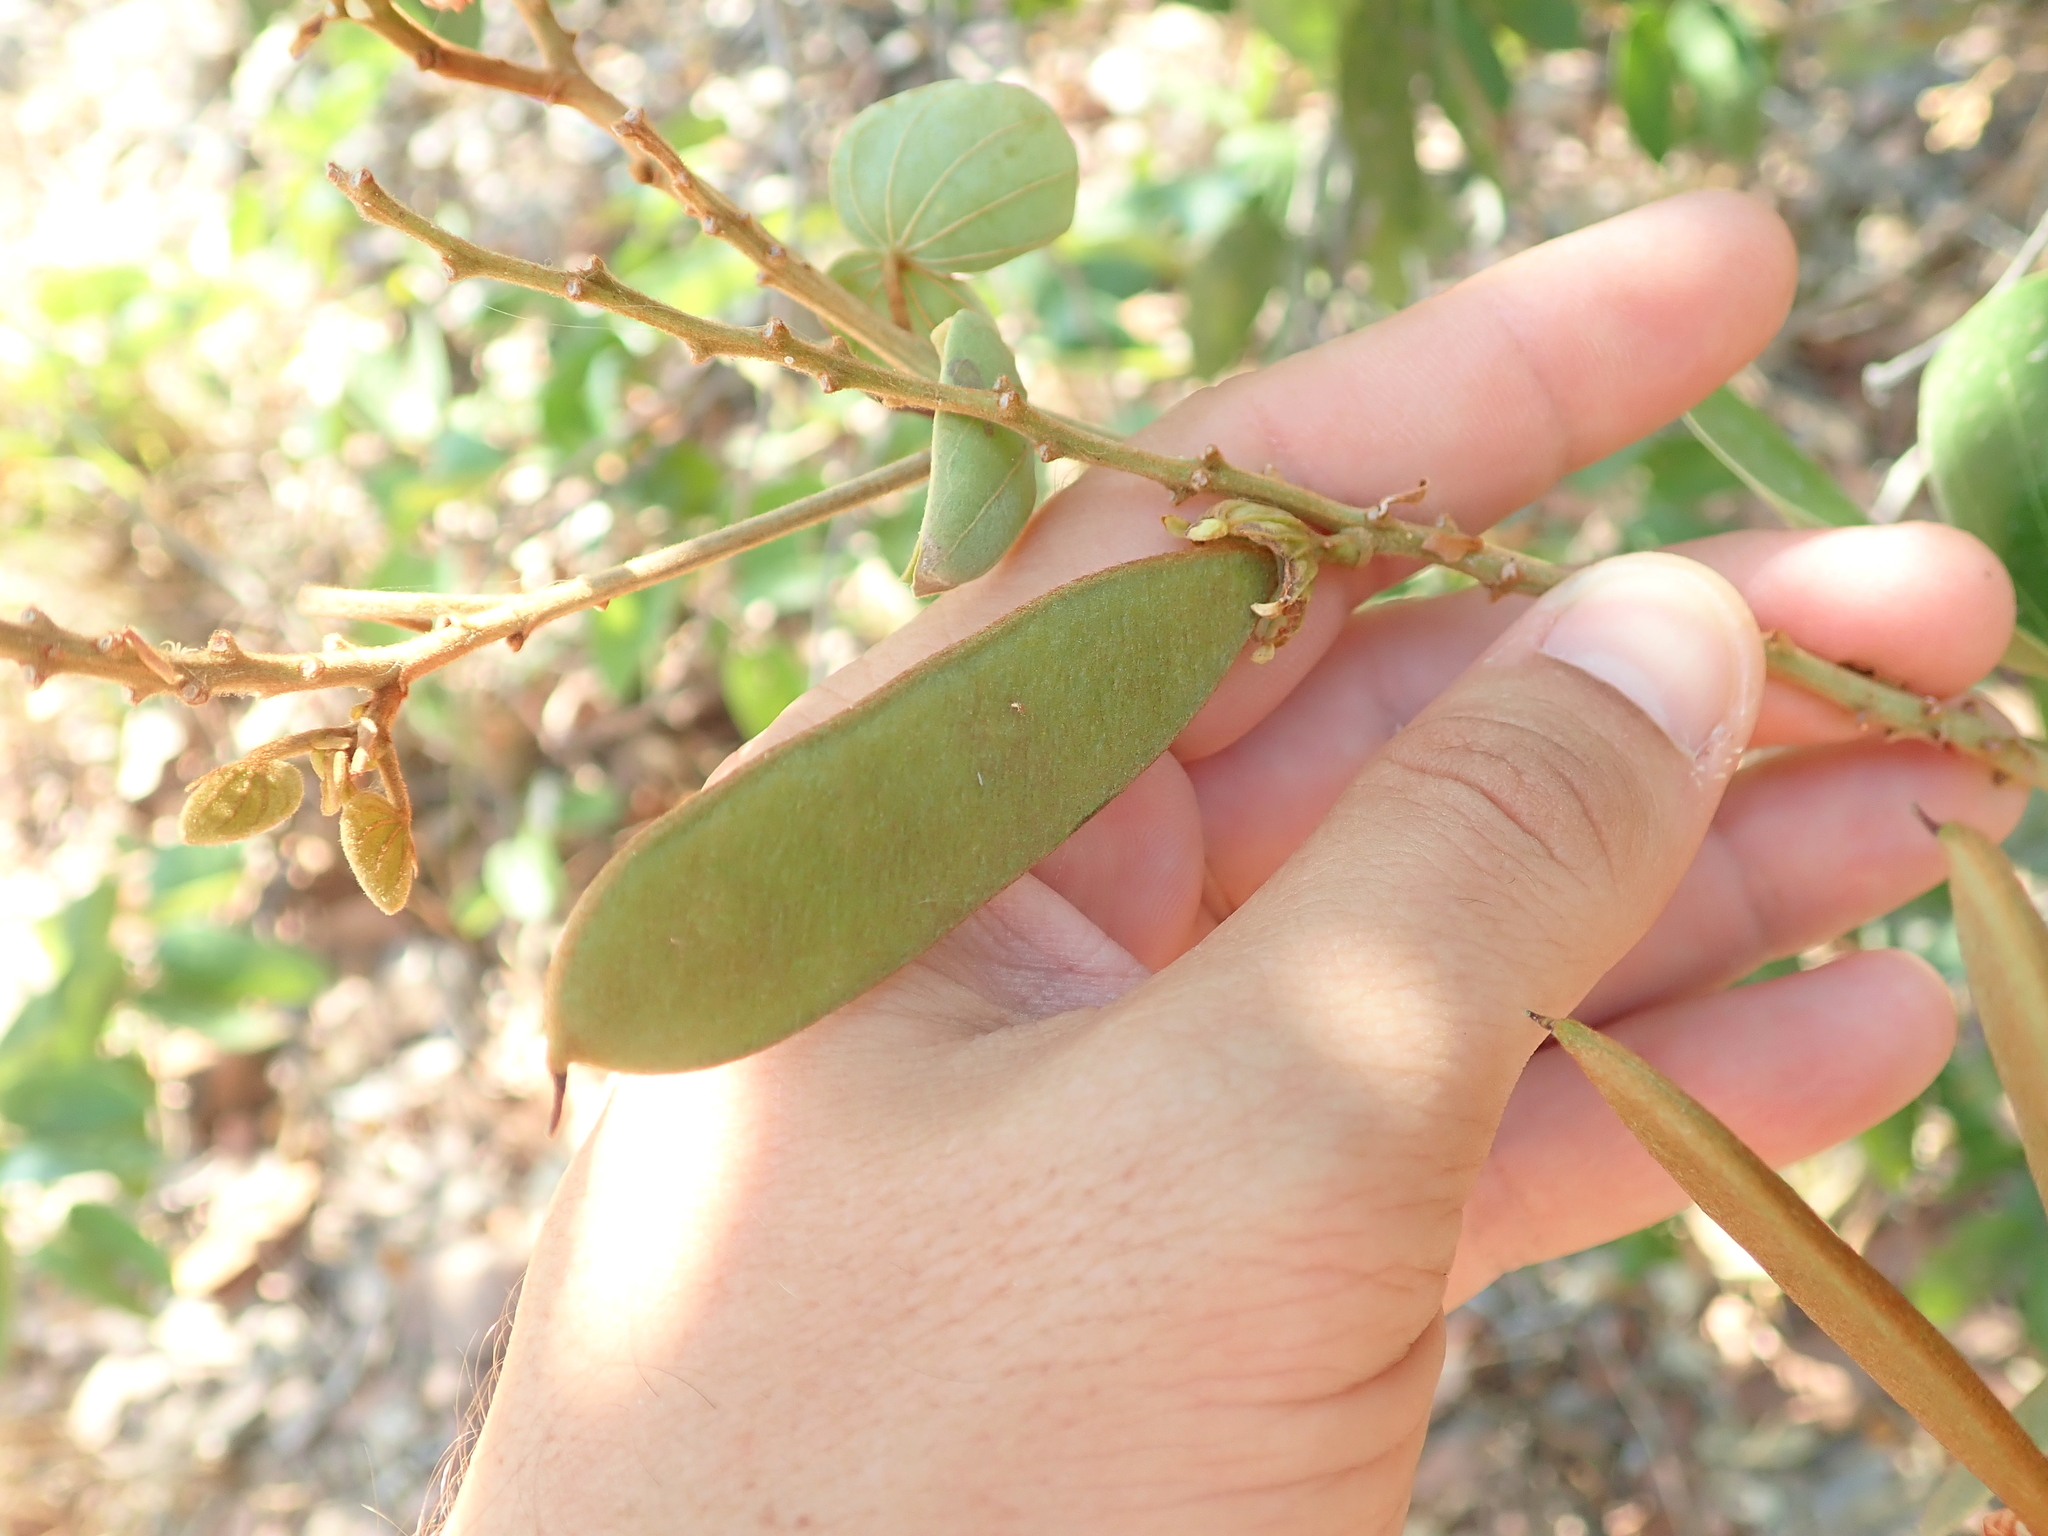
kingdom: Plantae
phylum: Tracheophyta
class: Magnoliopsida
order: Fabales
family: Fabaceae
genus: Schnella
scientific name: Schnella outimouta
